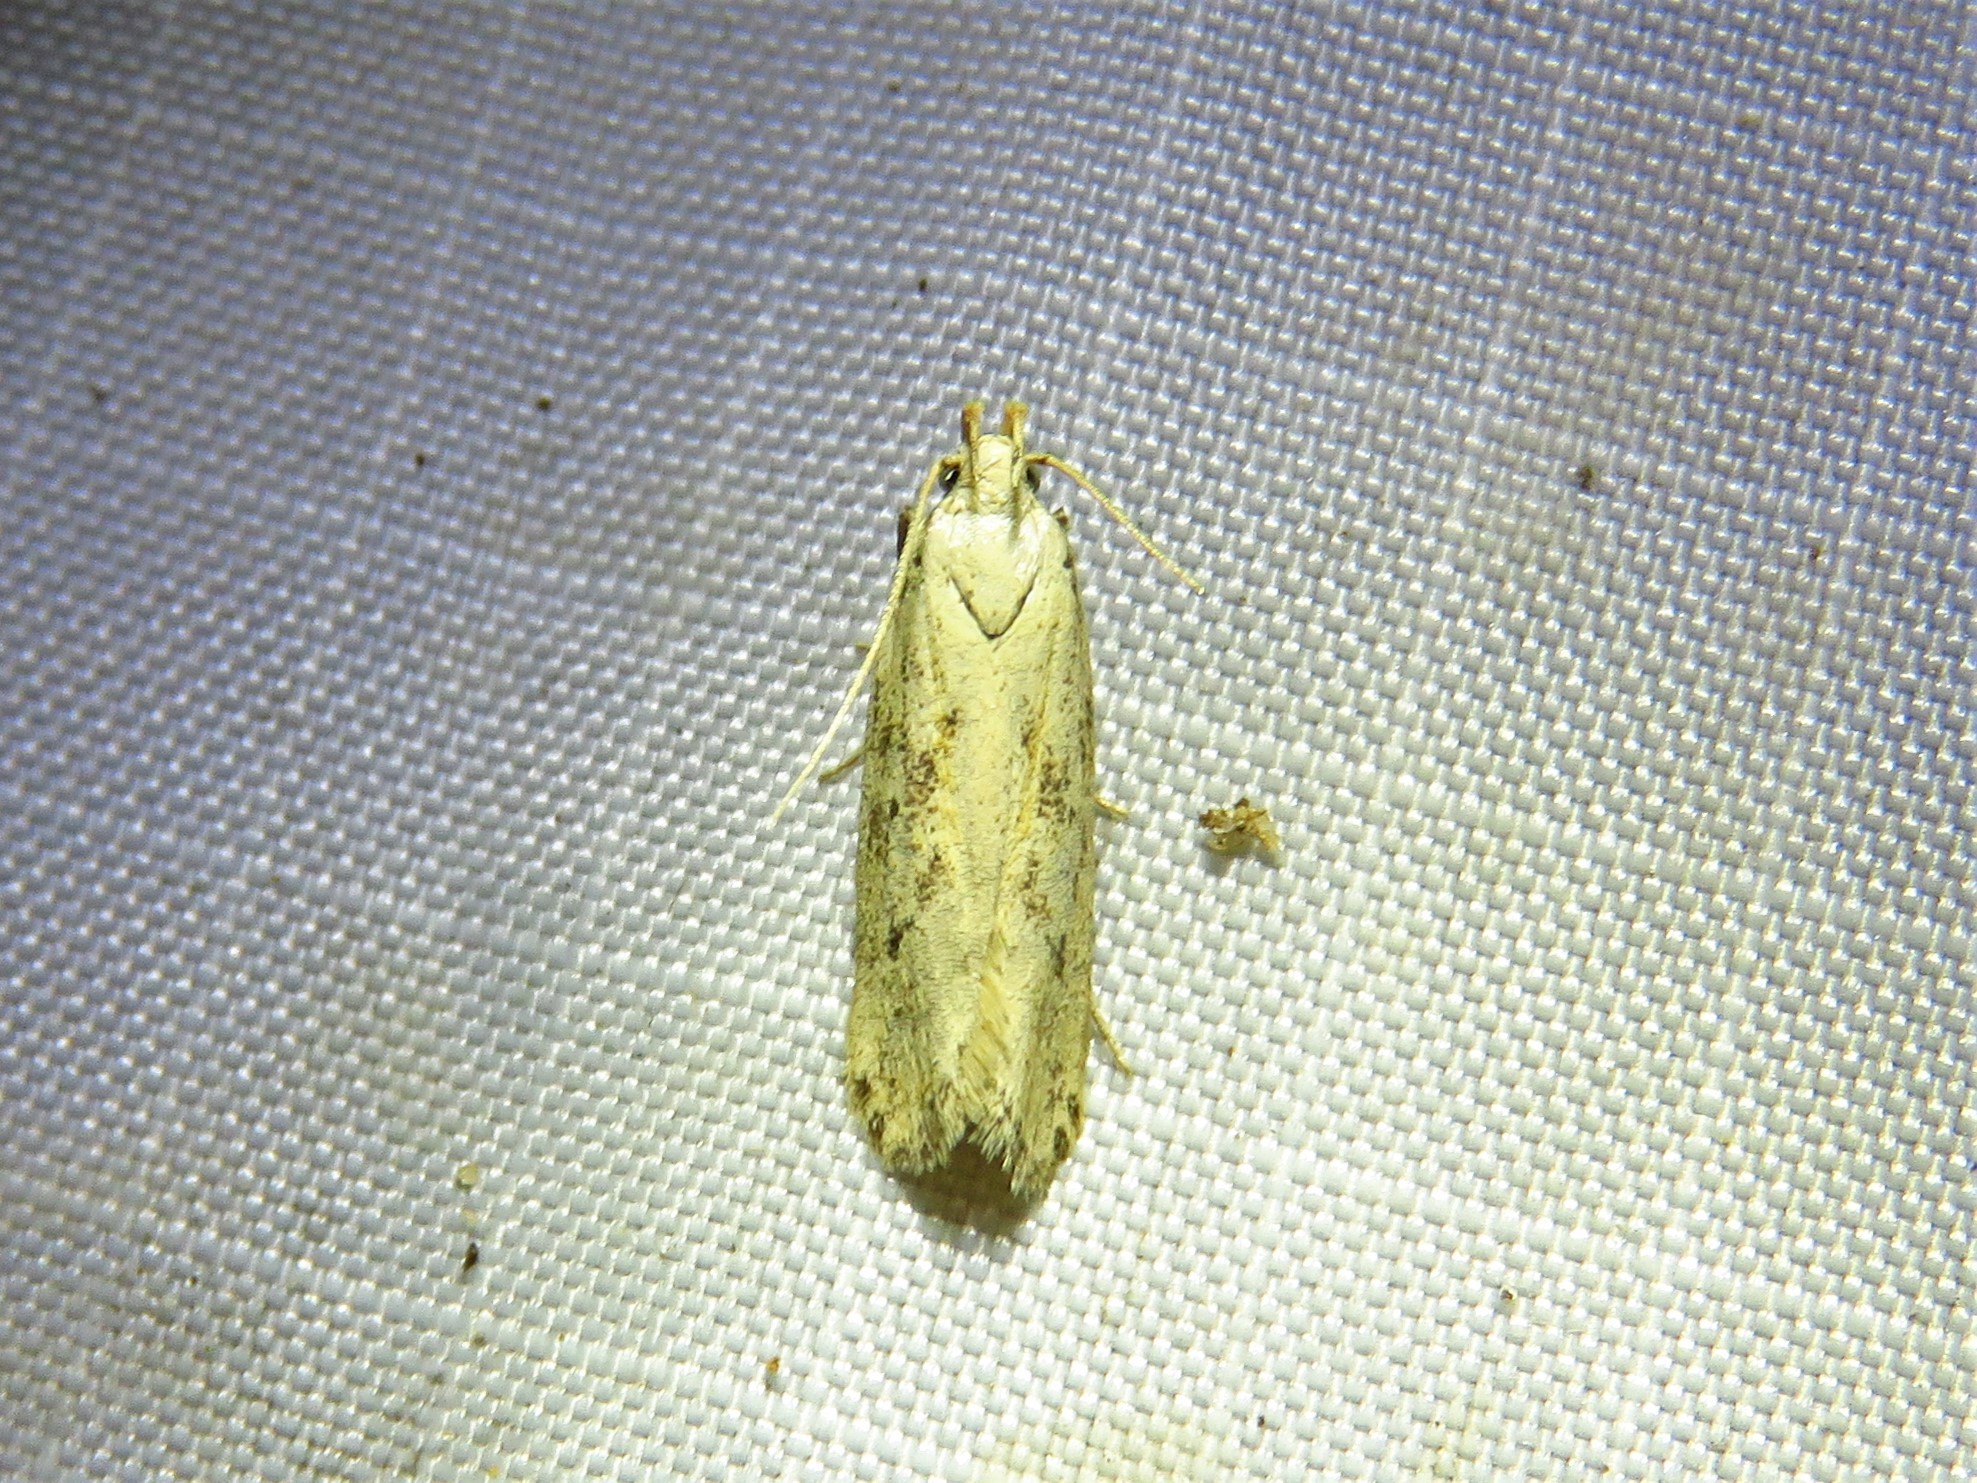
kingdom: Animalia
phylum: Arthropoda
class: Insecta
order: Lepidoptera
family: Gelechiidae
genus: Frumenta
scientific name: Frumenta nundinella
